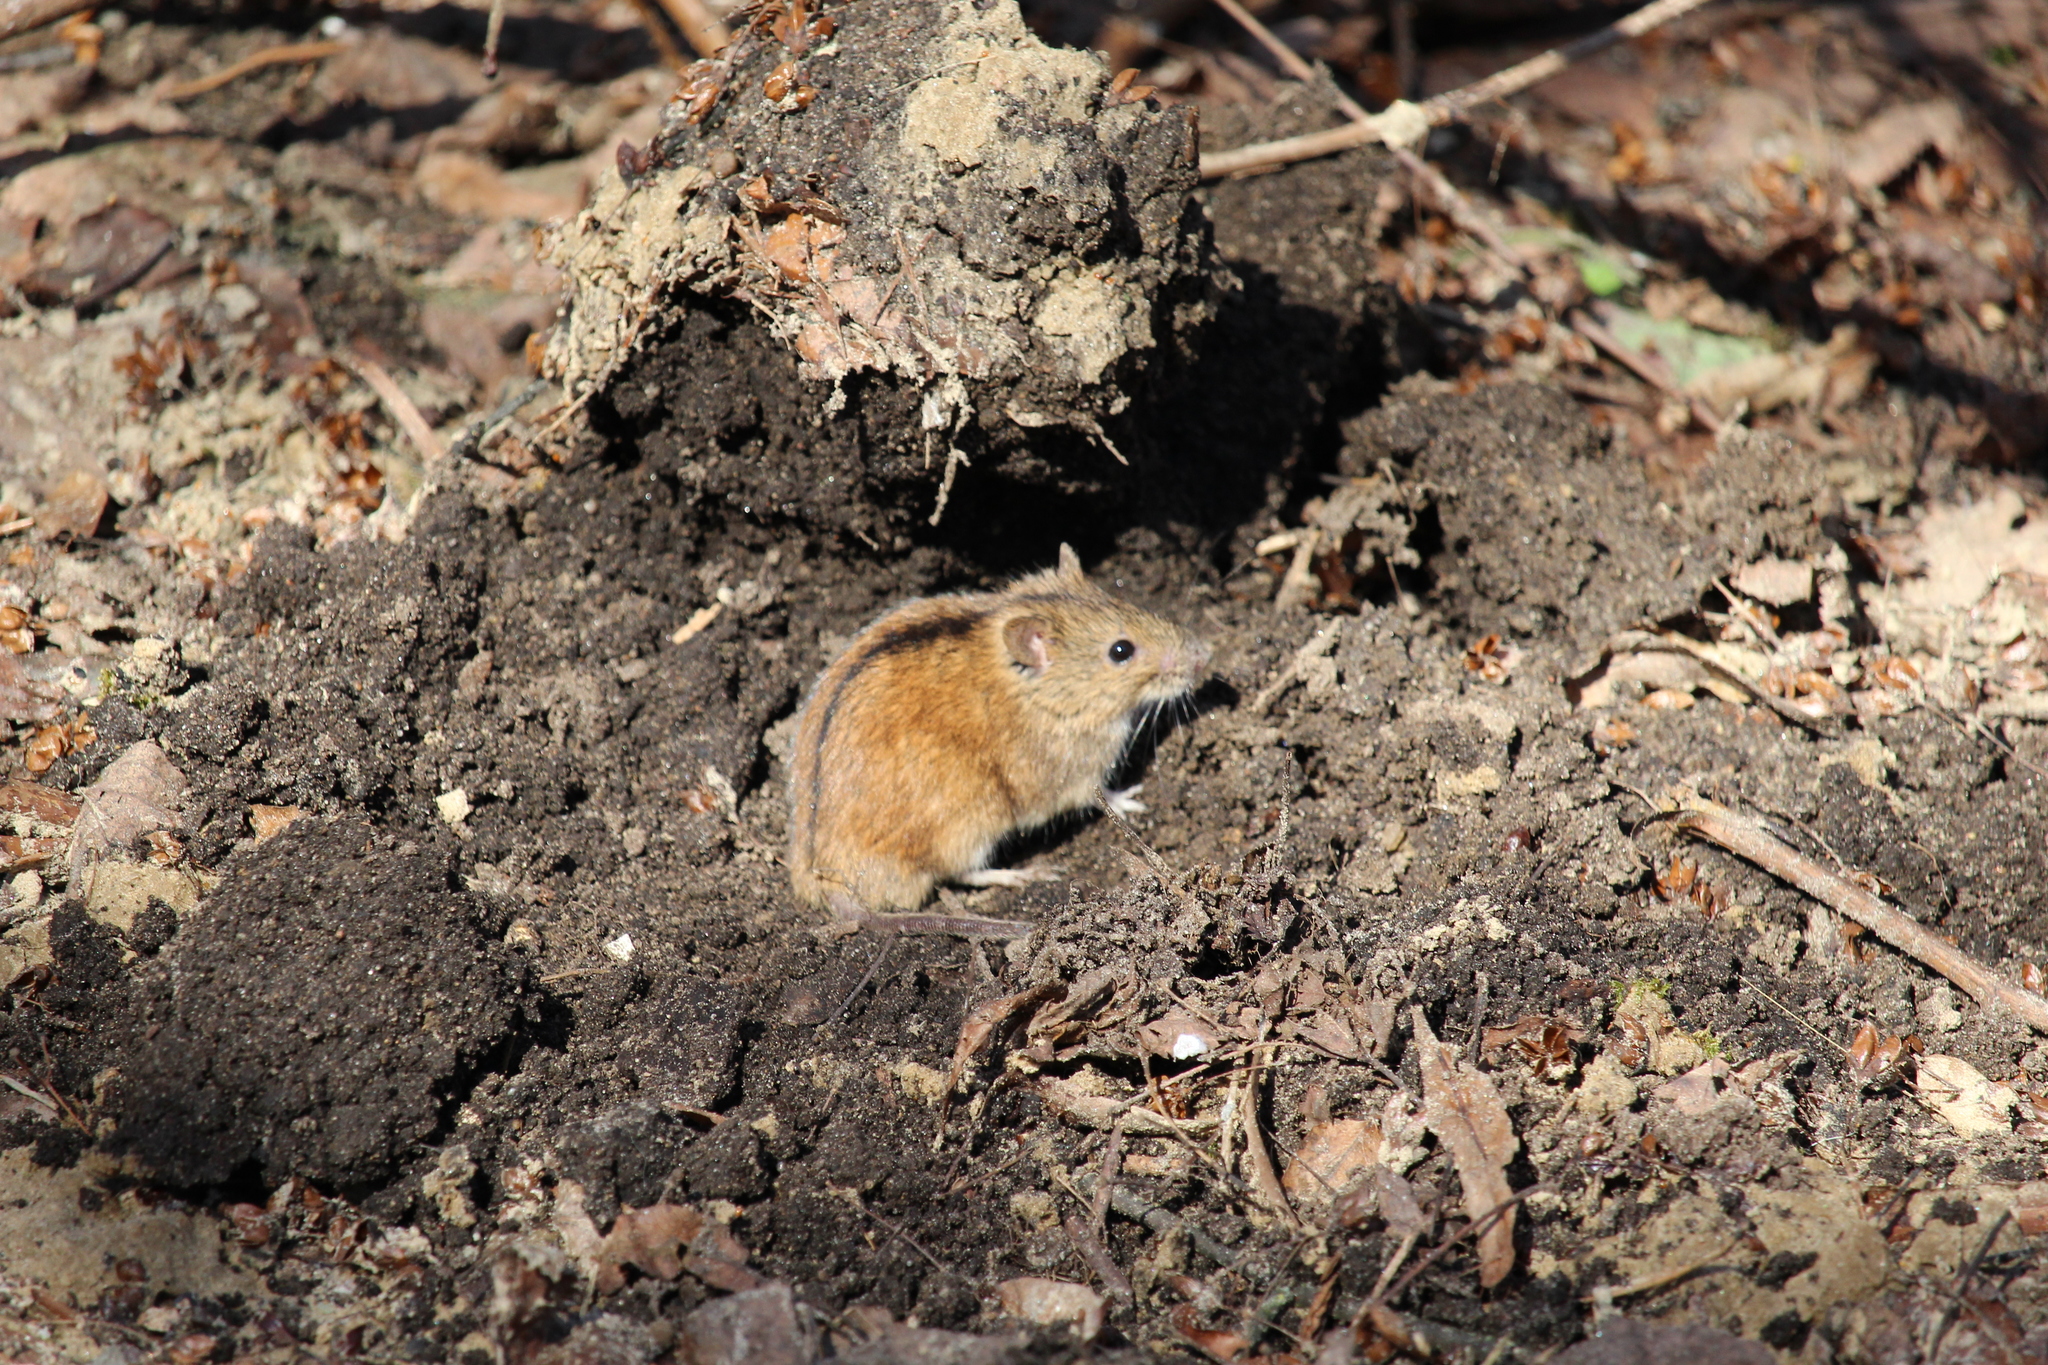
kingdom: Animalia
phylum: Chordata
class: Mammalia
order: Rodentia
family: Muridae
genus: Apodemus
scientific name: Apodemus agrarius
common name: Striped field mouse
